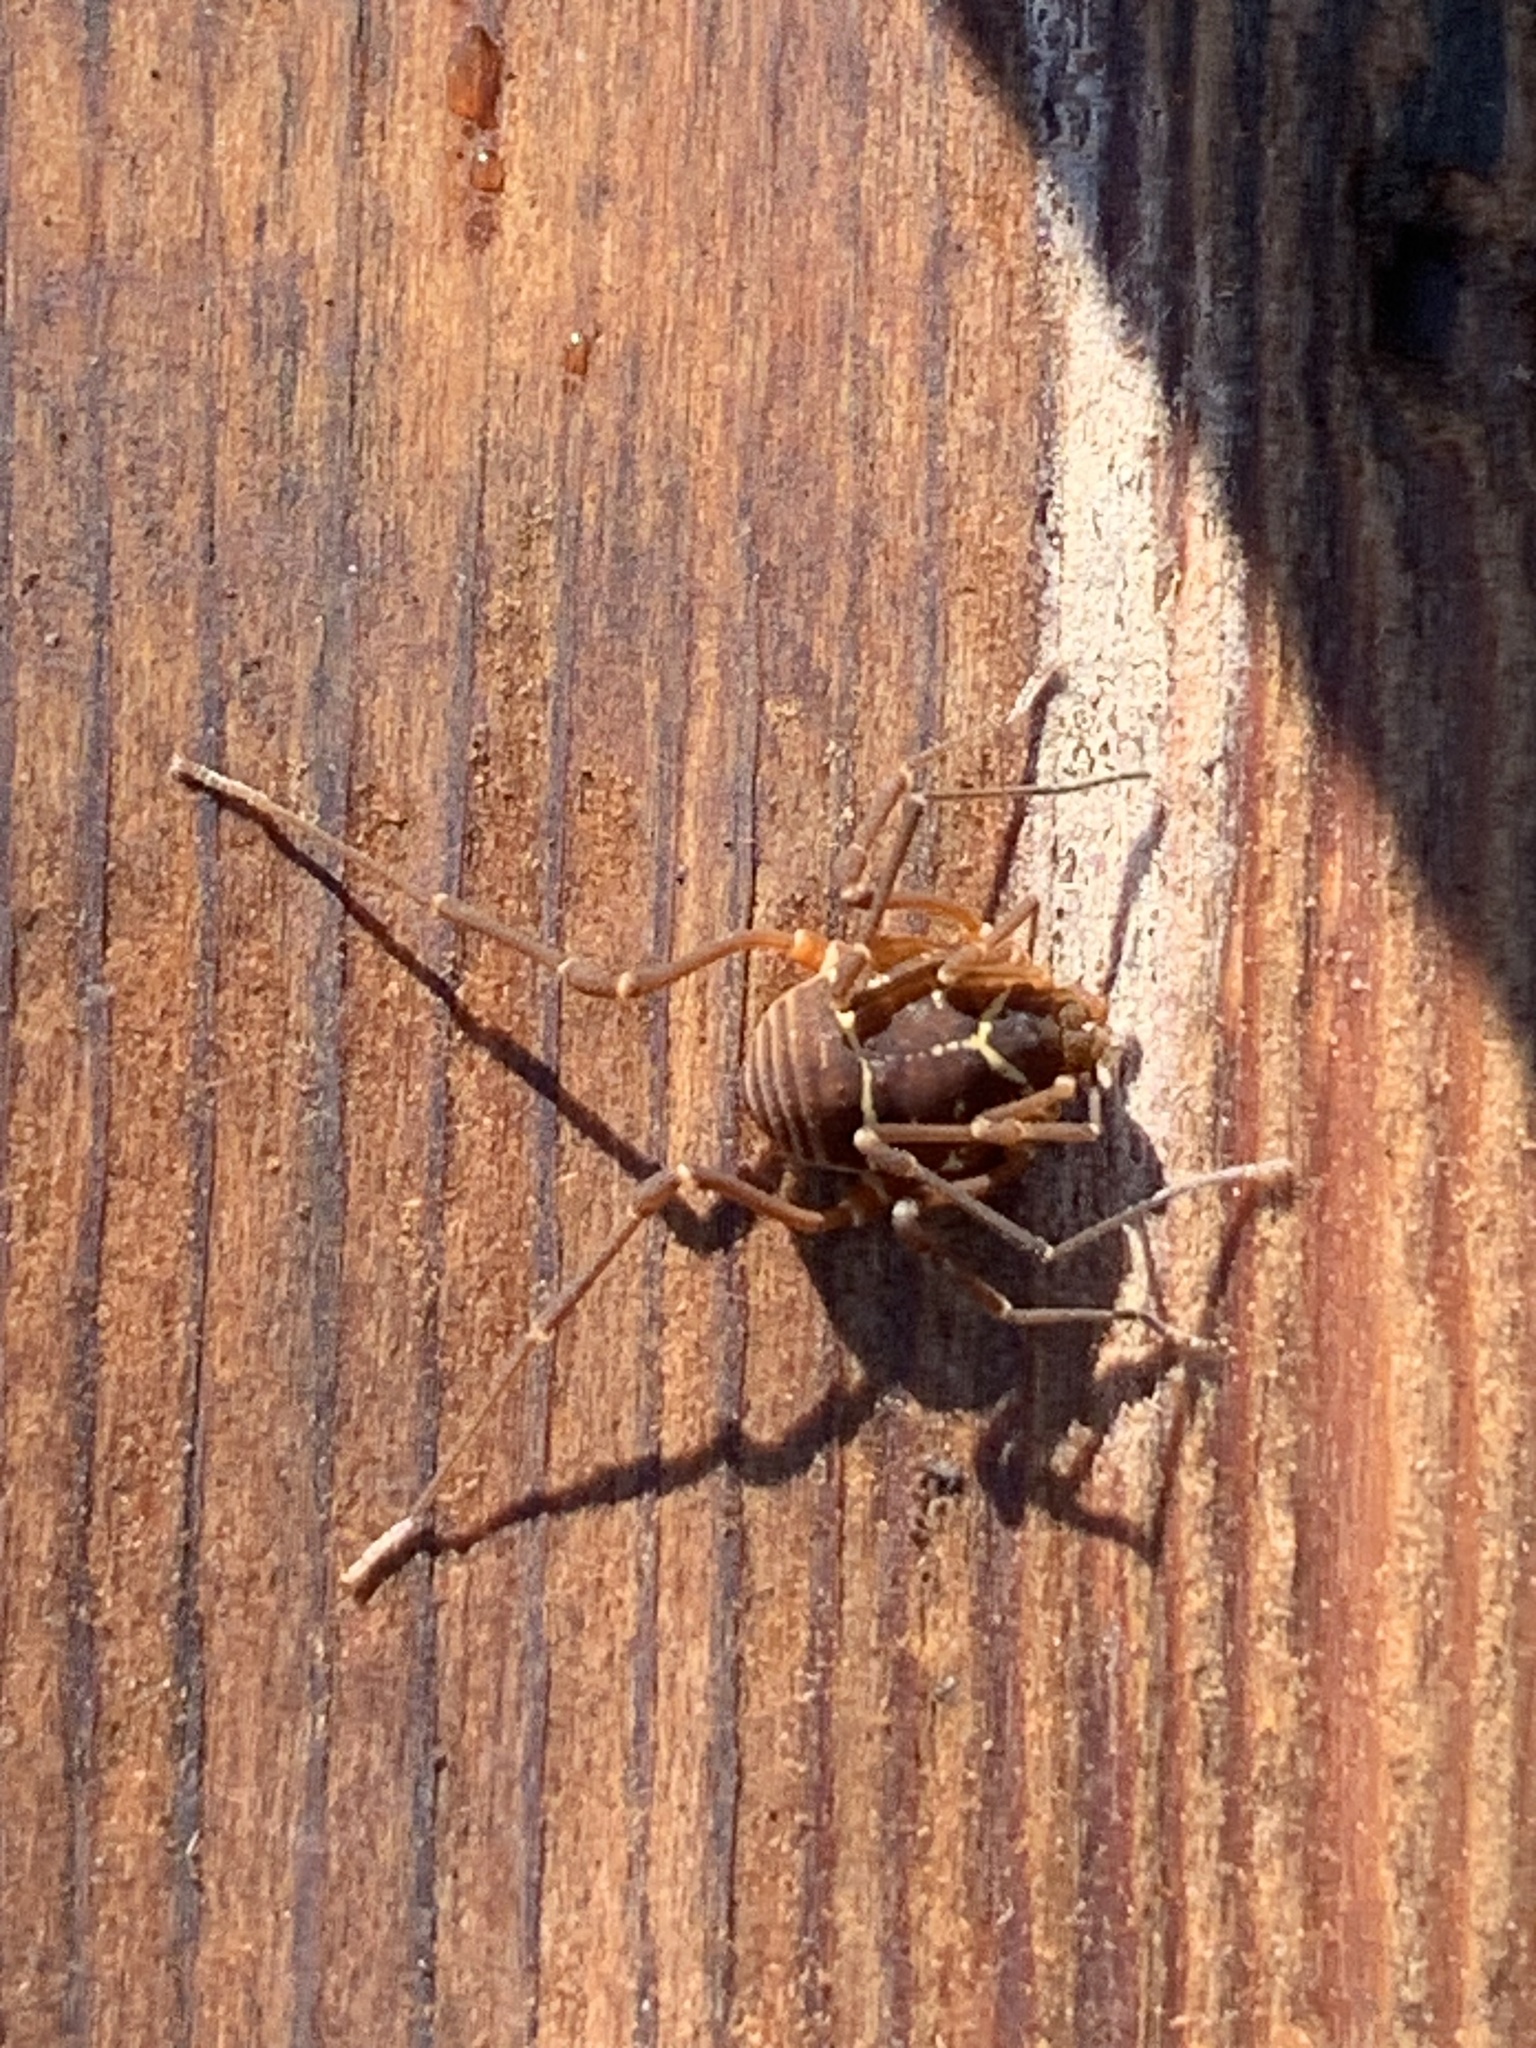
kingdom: Animalia
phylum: Arthropoda
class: Arachnida
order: Opiliones
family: Cosmetidae
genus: Libitioides
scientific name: Libitioides sayi
